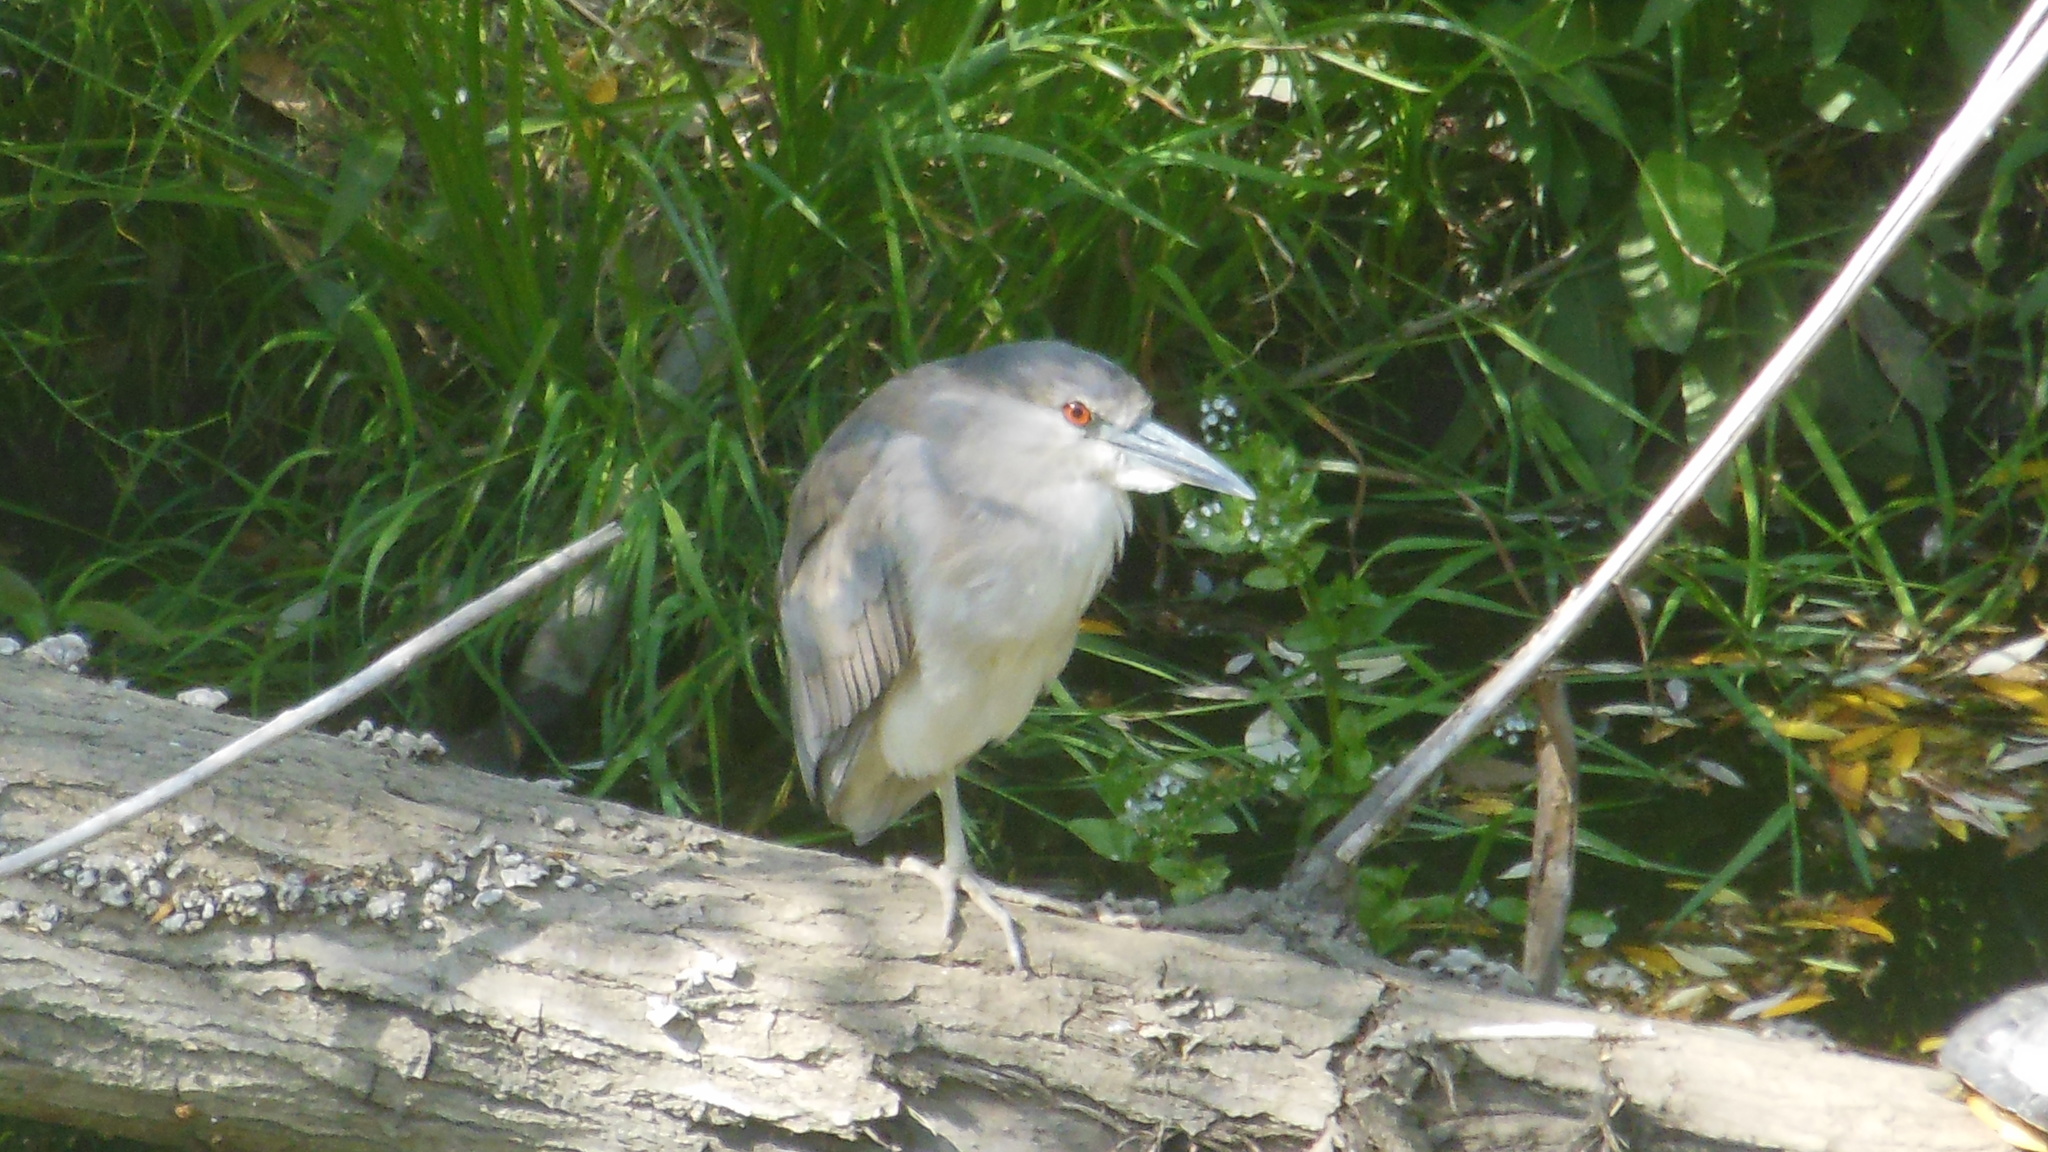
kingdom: Animalia
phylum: Chordata
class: Aves
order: Pelecaniformes
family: Ardeidae
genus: Nycticorax
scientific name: Nycticorax nycticorax
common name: Black-crowned night heron
